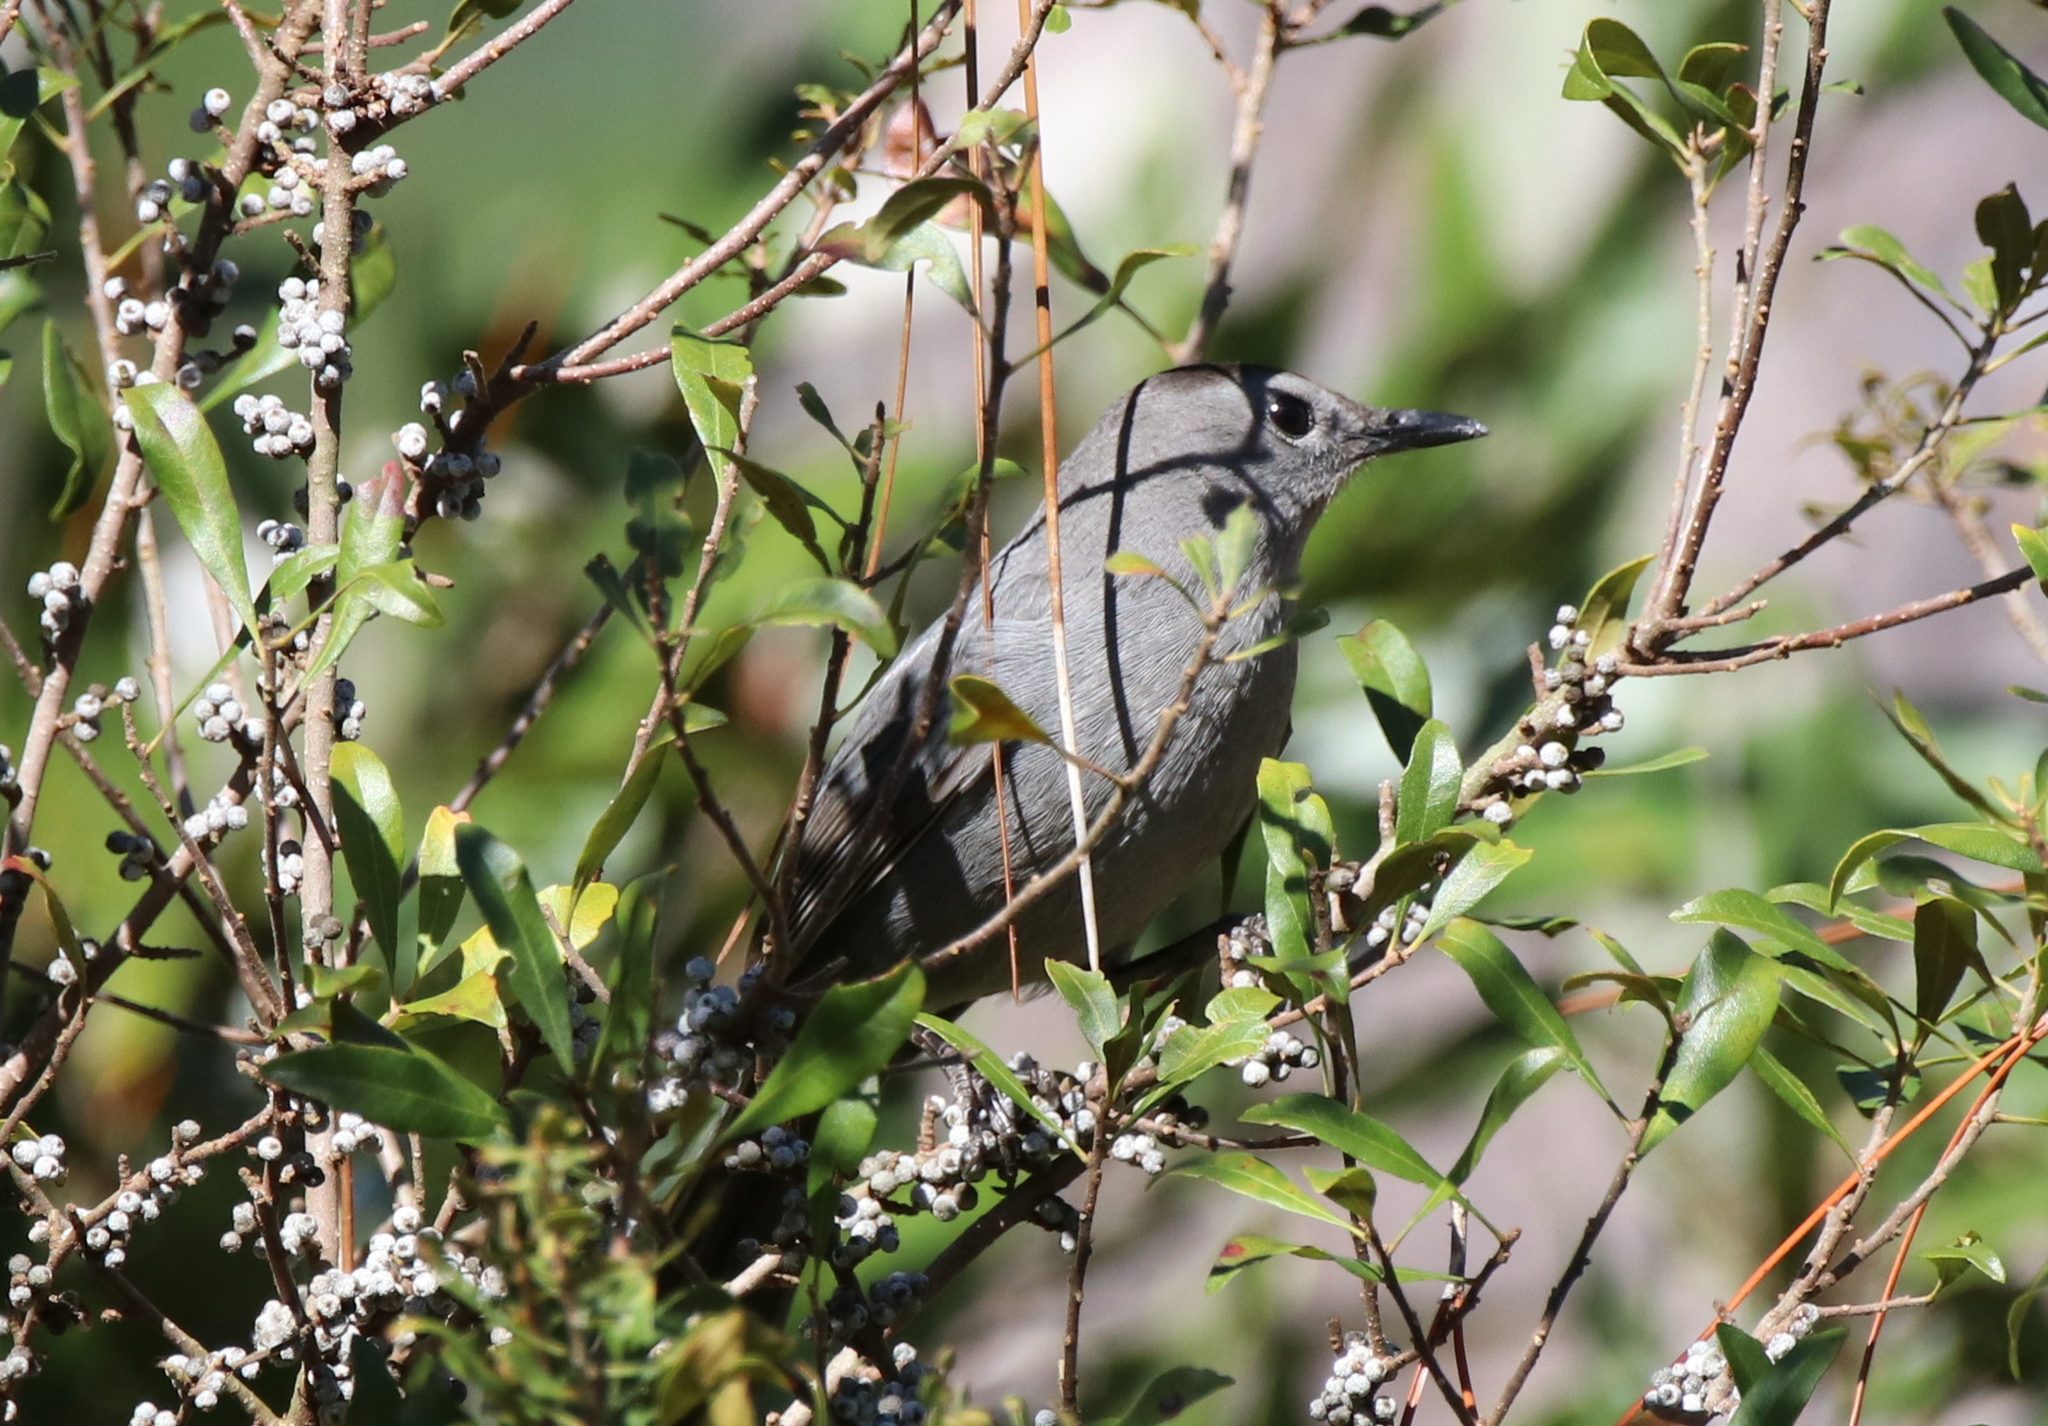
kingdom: Animalia
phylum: Chordata
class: Aves
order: Passeriformes
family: Mimidae
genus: Dumetella
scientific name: Dumetella carolinensis
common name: Gray catbird
